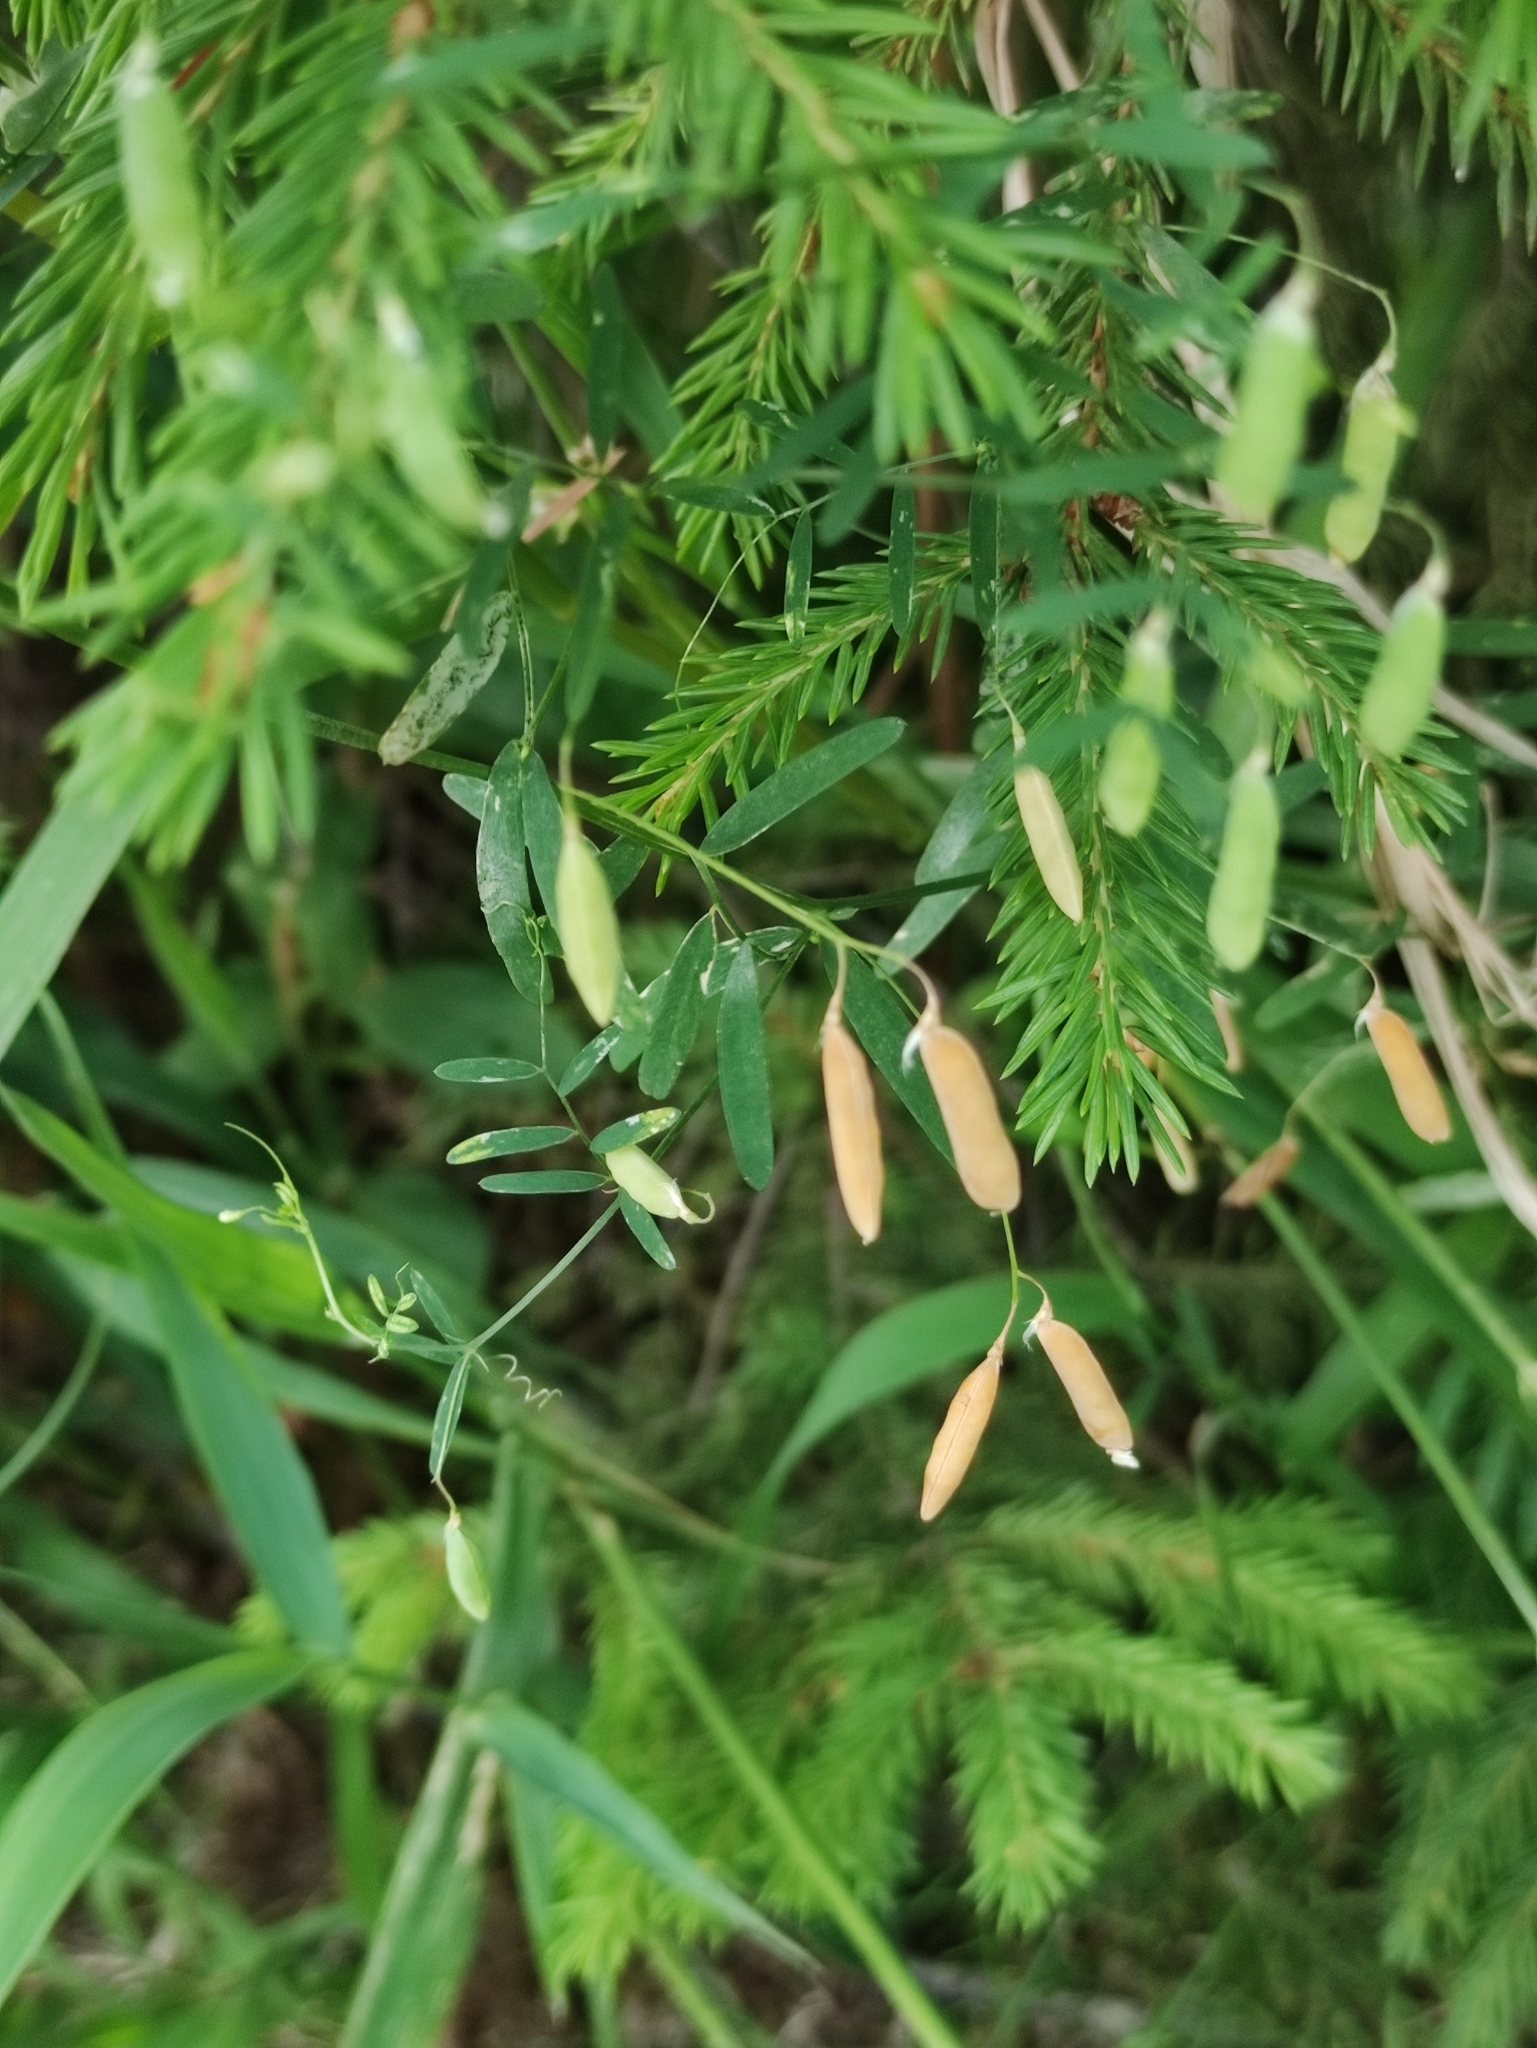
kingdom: Plantae
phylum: Tracheophyta
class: Magnoliopsida
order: Fabales
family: Fabaceae
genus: Vicia
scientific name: Vicia tetrasperma
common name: Smooth tare
